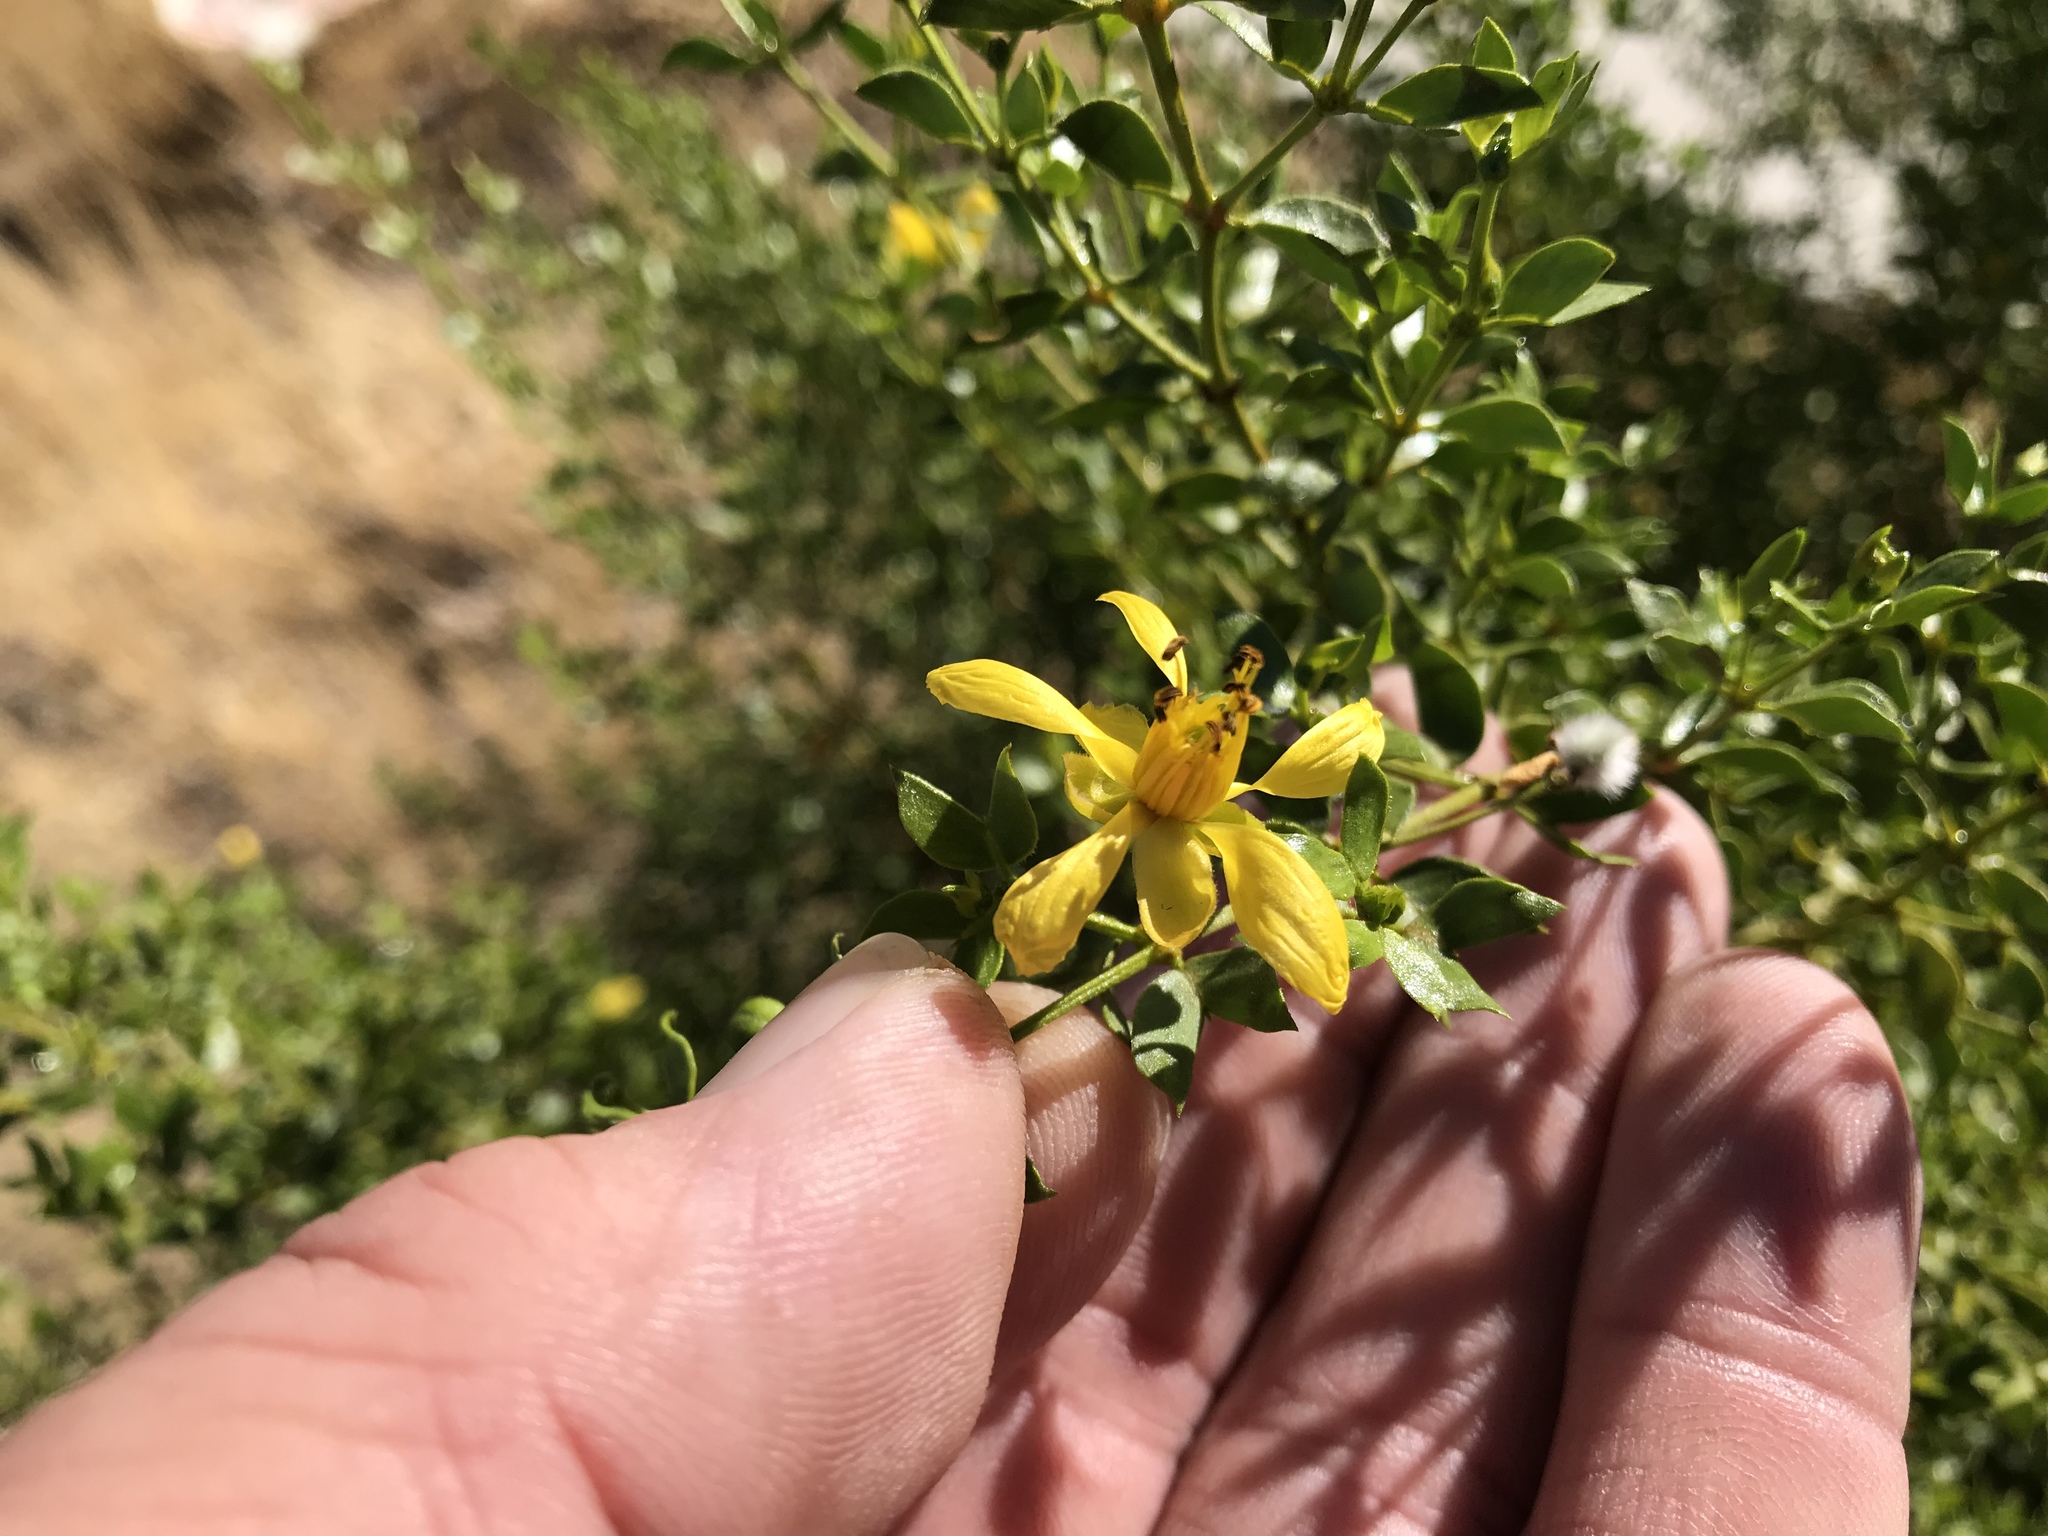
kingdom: Plantae
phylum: Tracheophyta
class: Magnoliopsida
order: Zygophyllales
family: Zygophyllaceae
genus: Larrea
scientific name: Larrea tridentata
